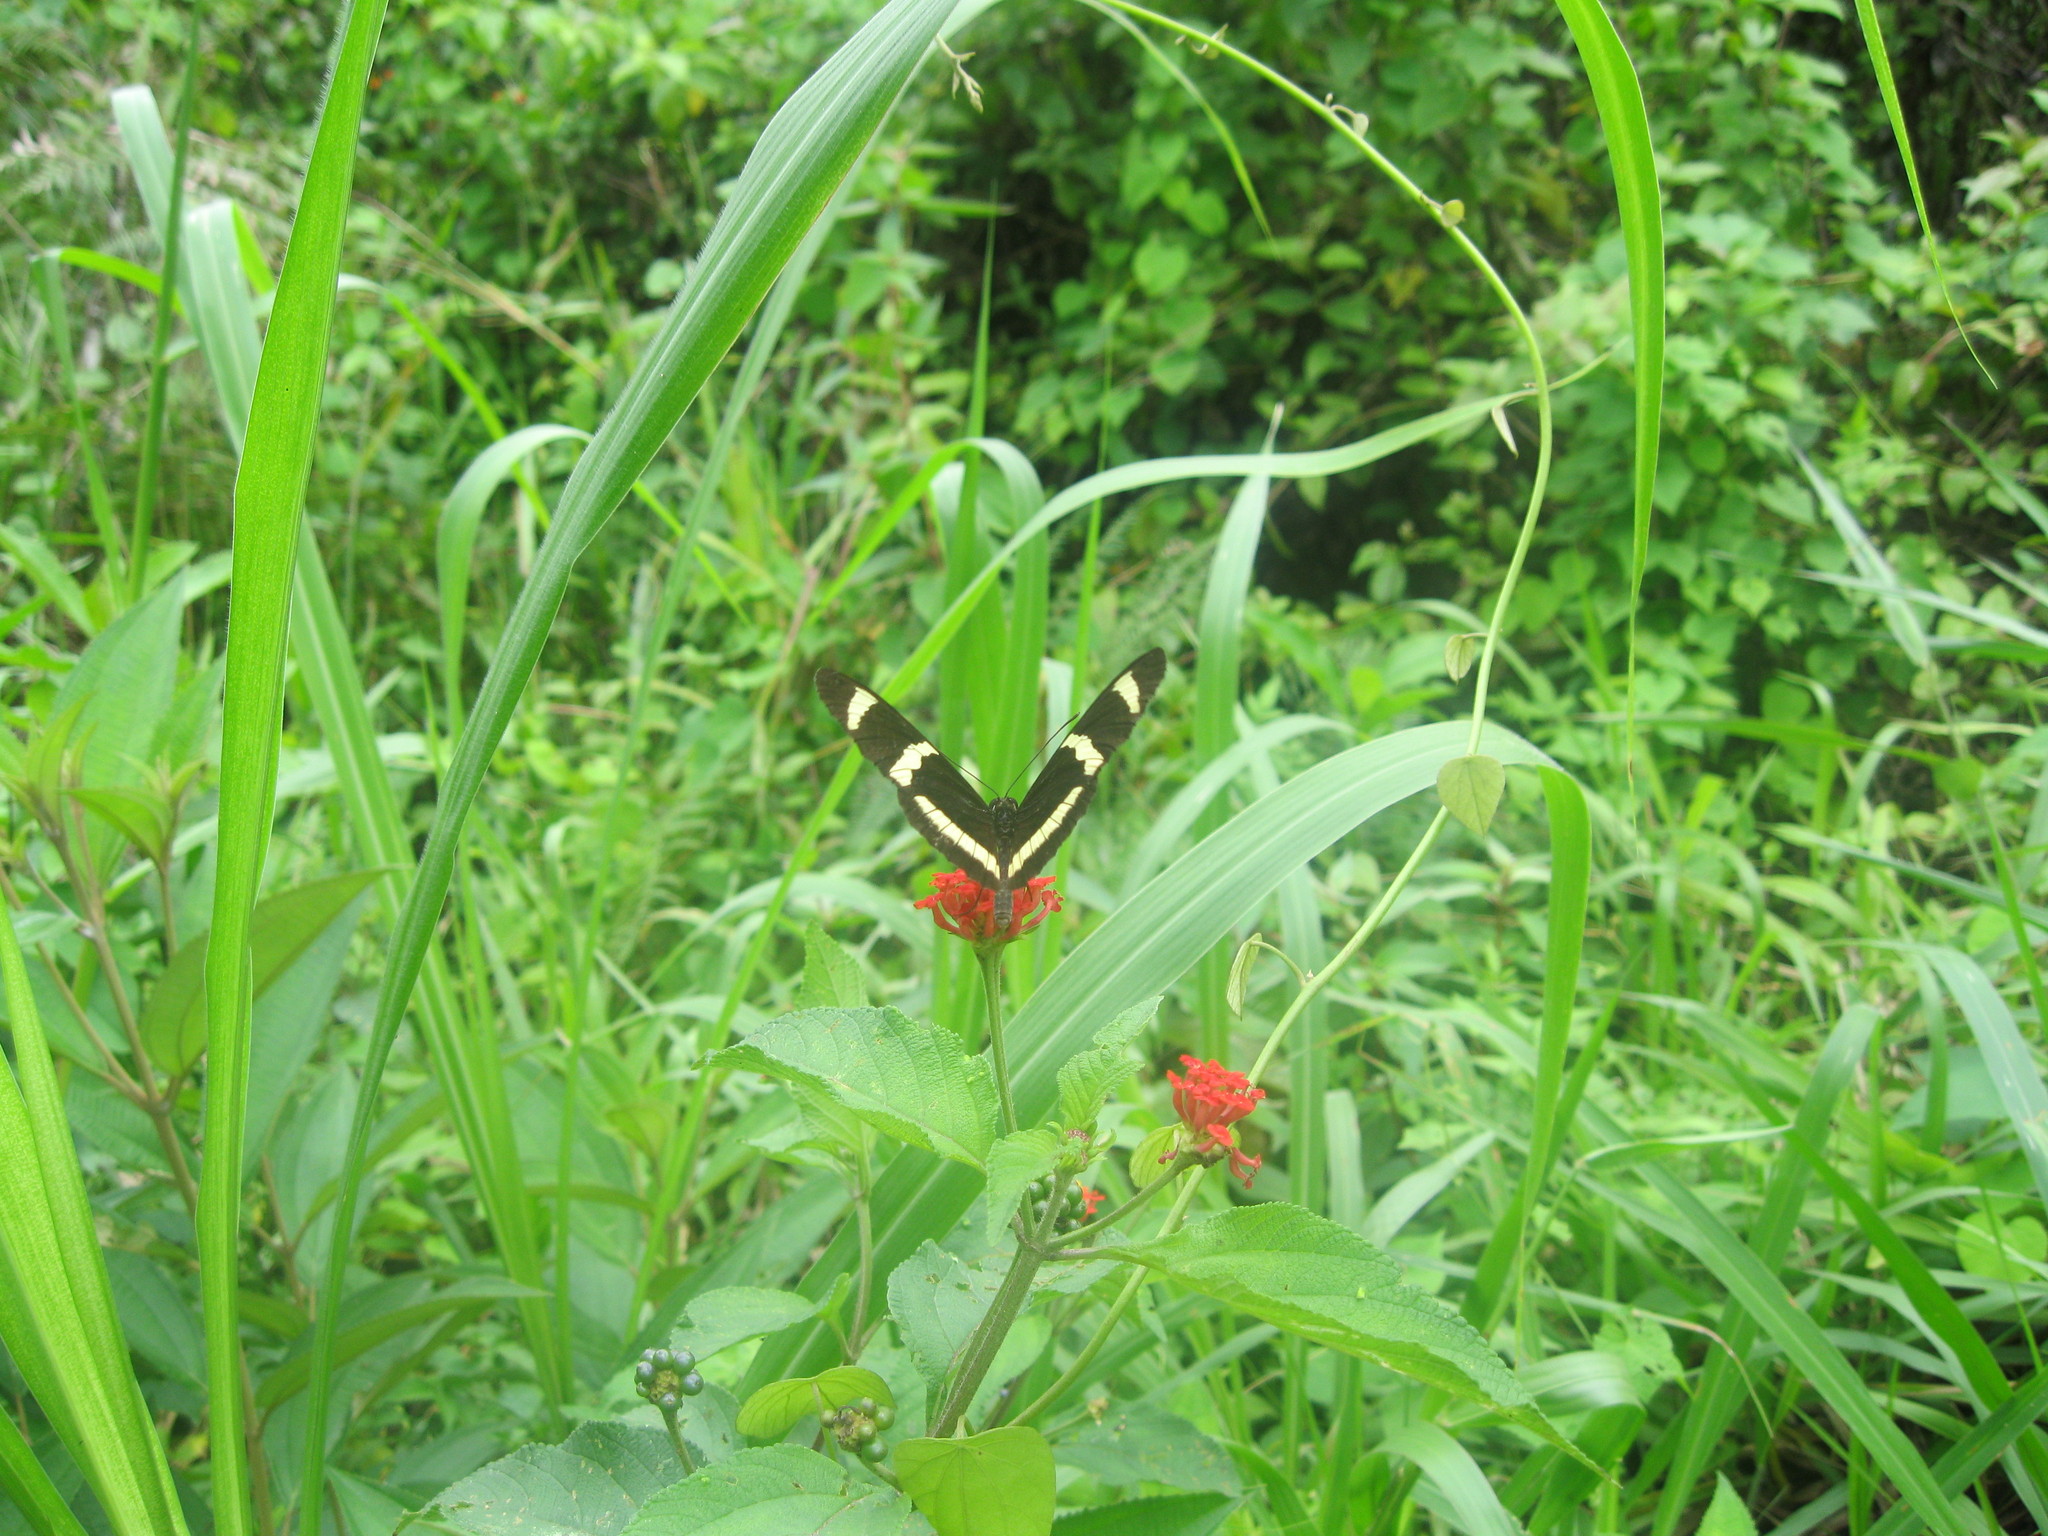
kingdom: Animalia
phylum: Arthropoda
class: Insecta
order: Lepidoptera
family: Nymphalidae
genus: Heliconius
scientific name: Heliconius hewitsoni
